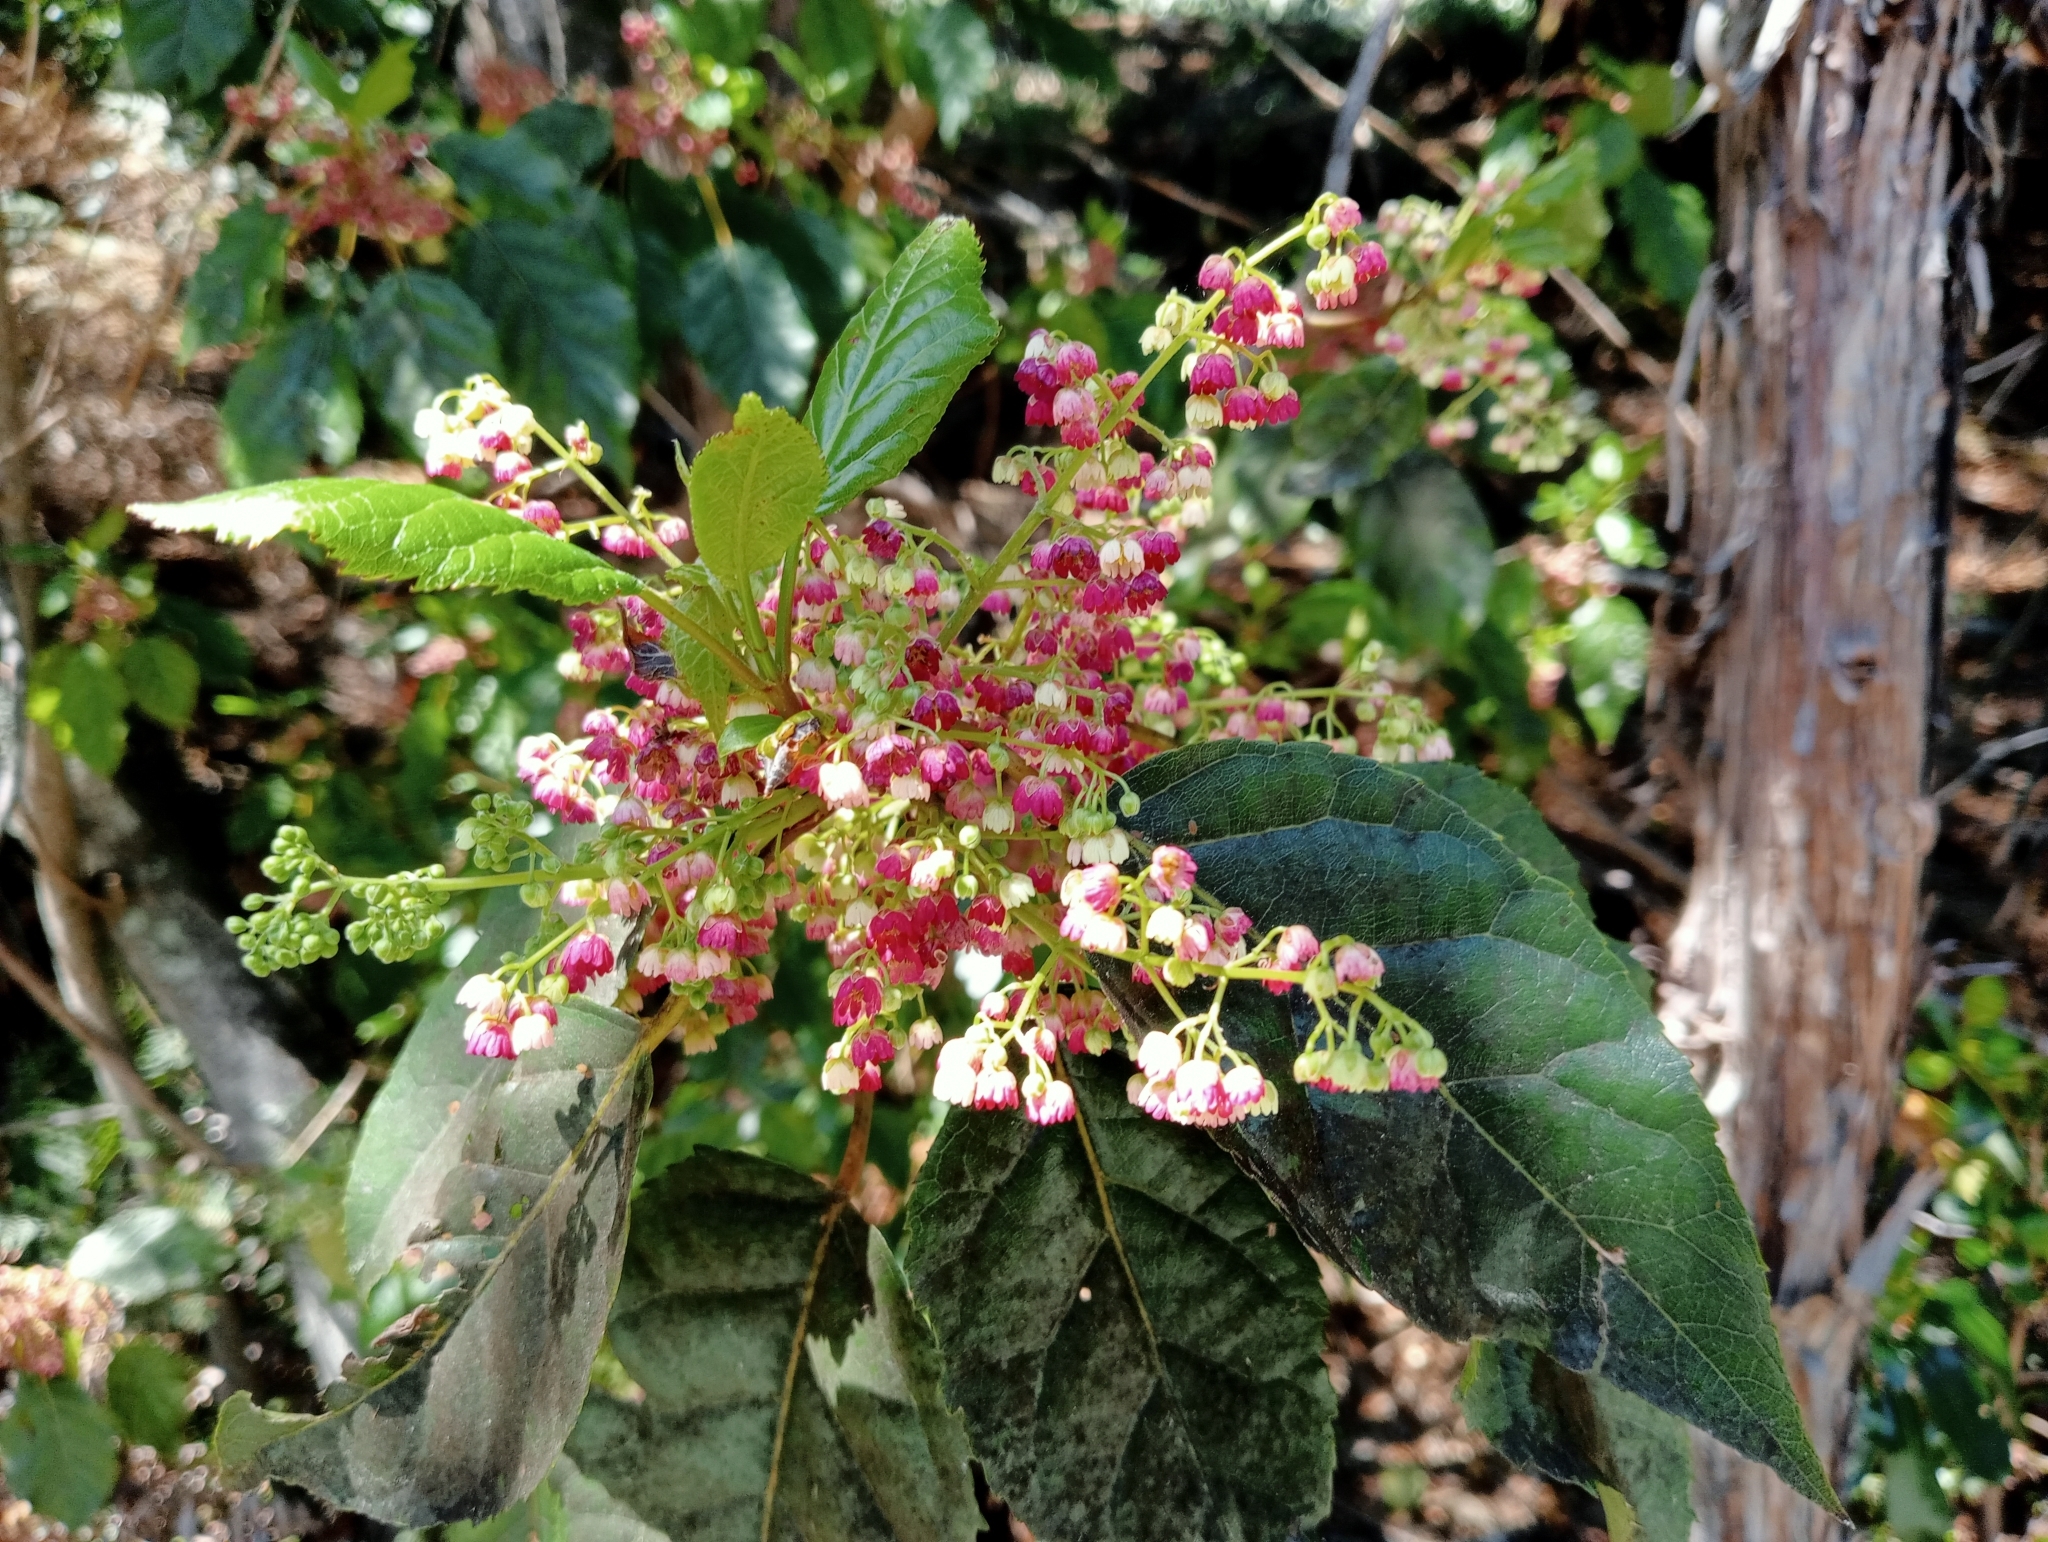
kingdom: Plantae
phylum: Tracheophyta
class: Magnoliopsida
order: Oxalidales
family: Elaeocarpaceae
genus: Aristotelia
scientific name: Aristotelia serrata
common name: New zealand wineberry
